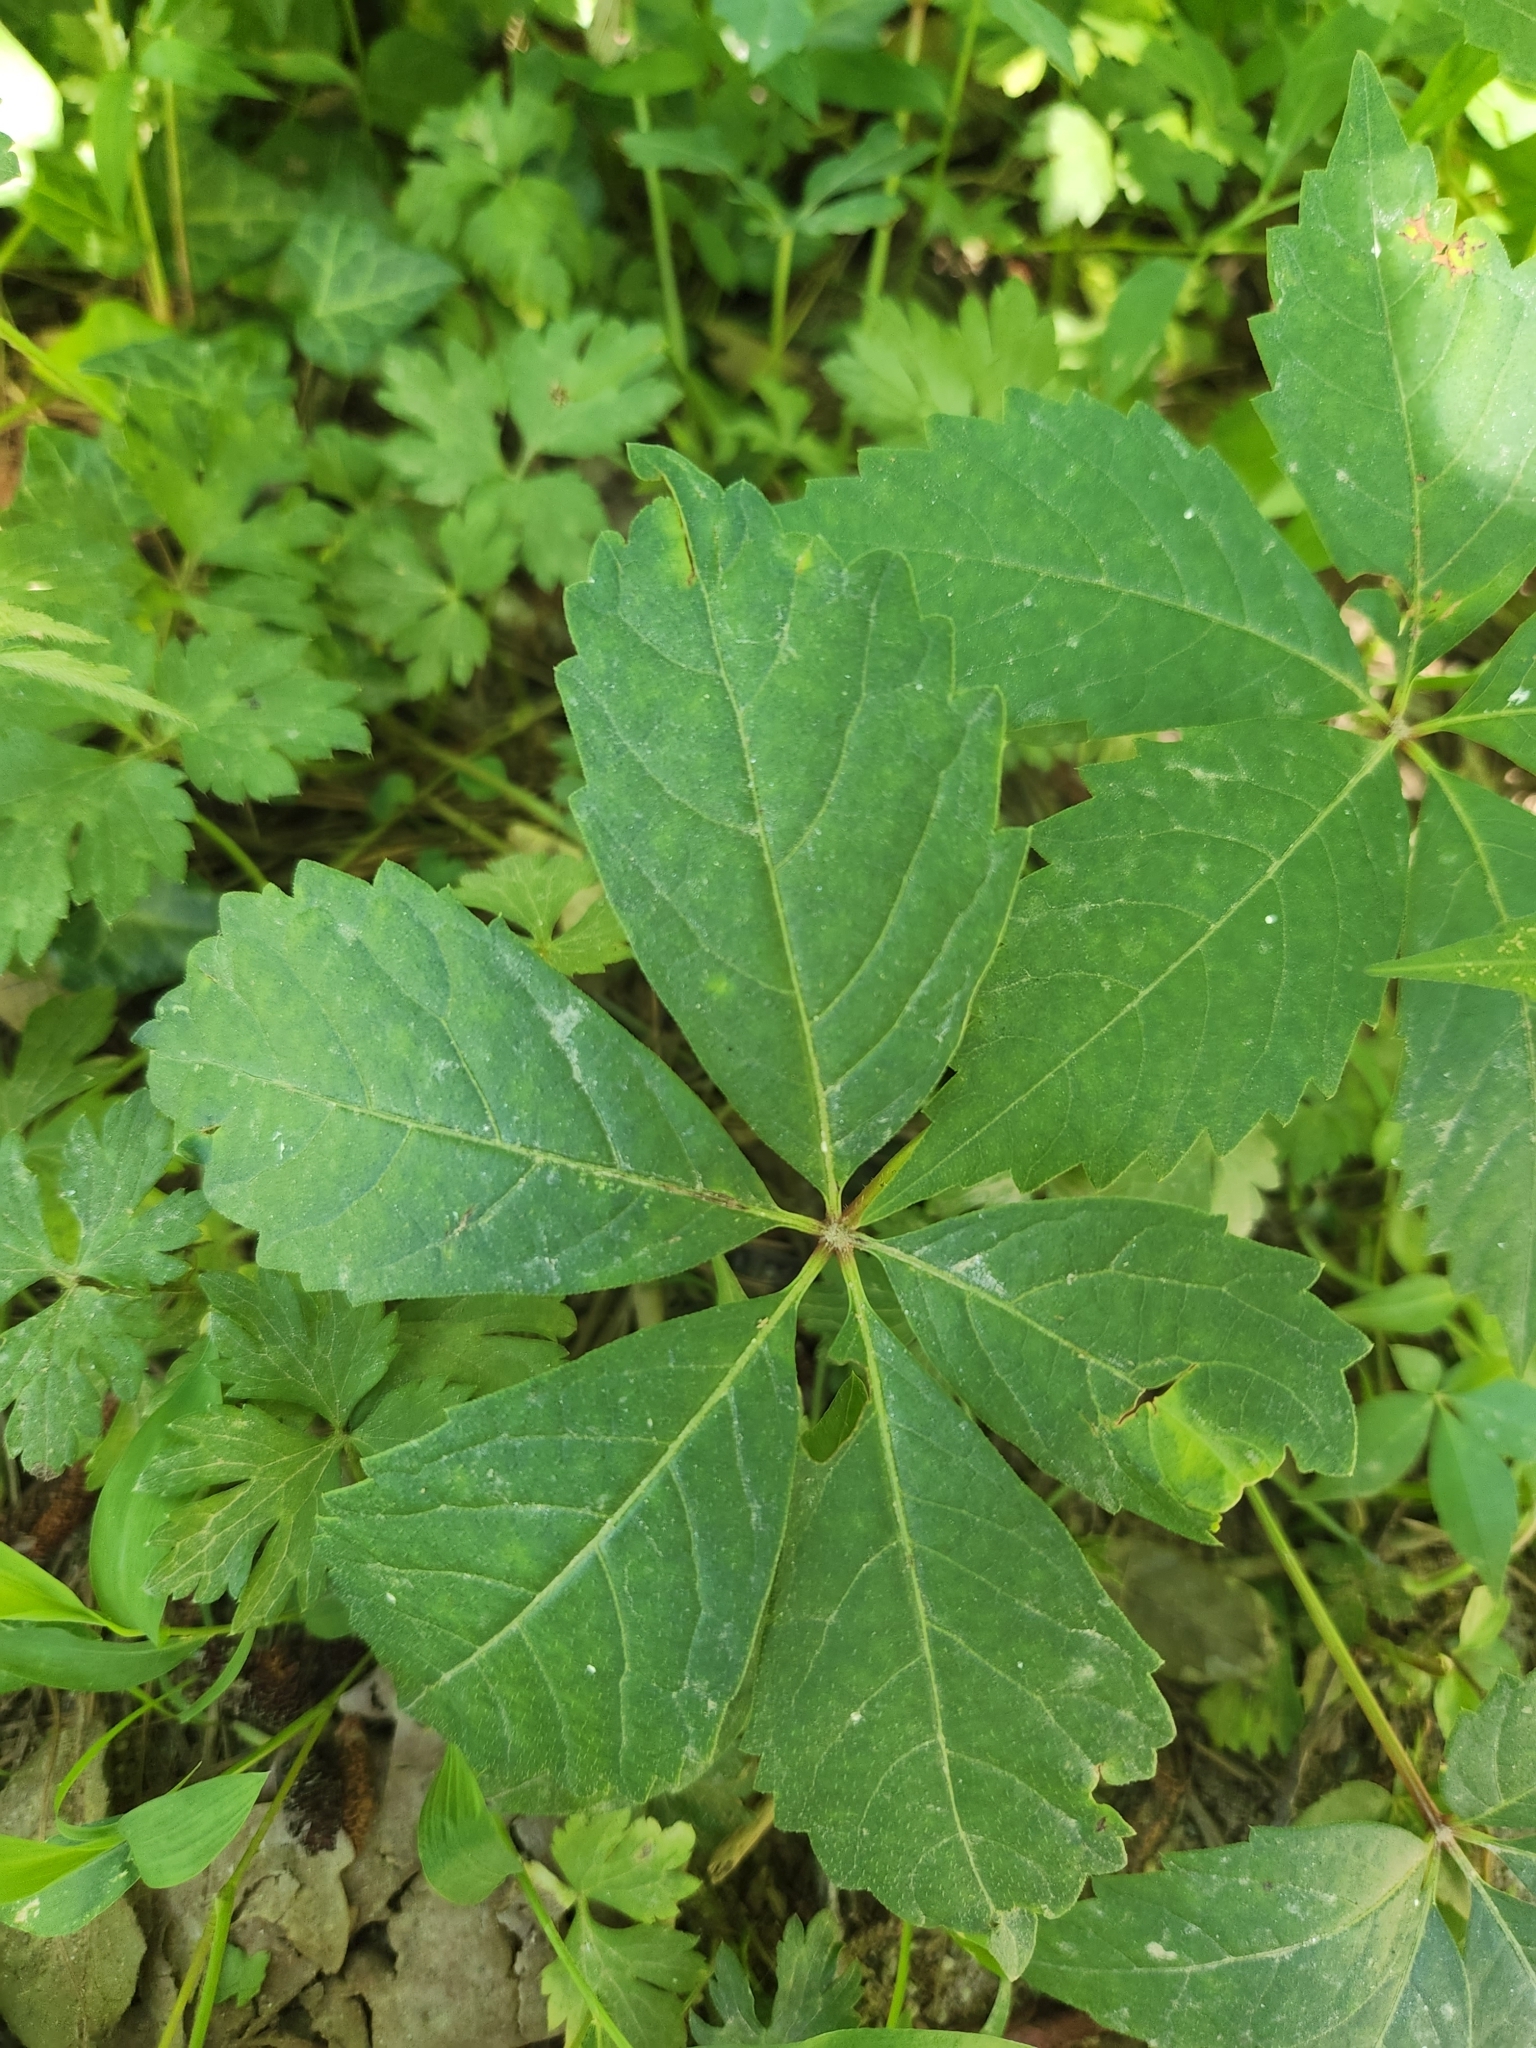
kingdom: Plantae
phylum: Tracheophyta
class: Magnoliopsida
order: Vitales
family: Vitaceae
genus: Parthenocissus
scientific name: Parthenocissus quinquefolia
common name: Virginia-creeper
